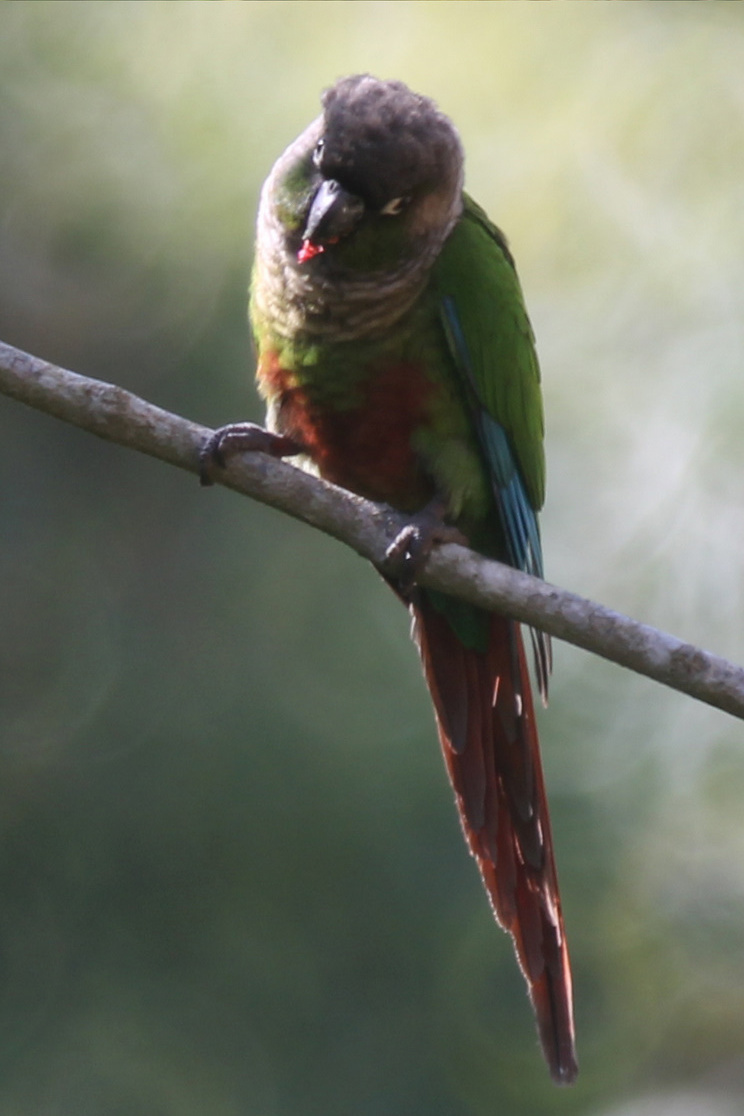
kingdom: Animalia
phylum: Chordata
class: Aves
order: Psittaciformes
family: Psittacidae
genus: Pyrrhura
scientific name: Pyrrhura molinae
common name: Green-cheeked parakeet
